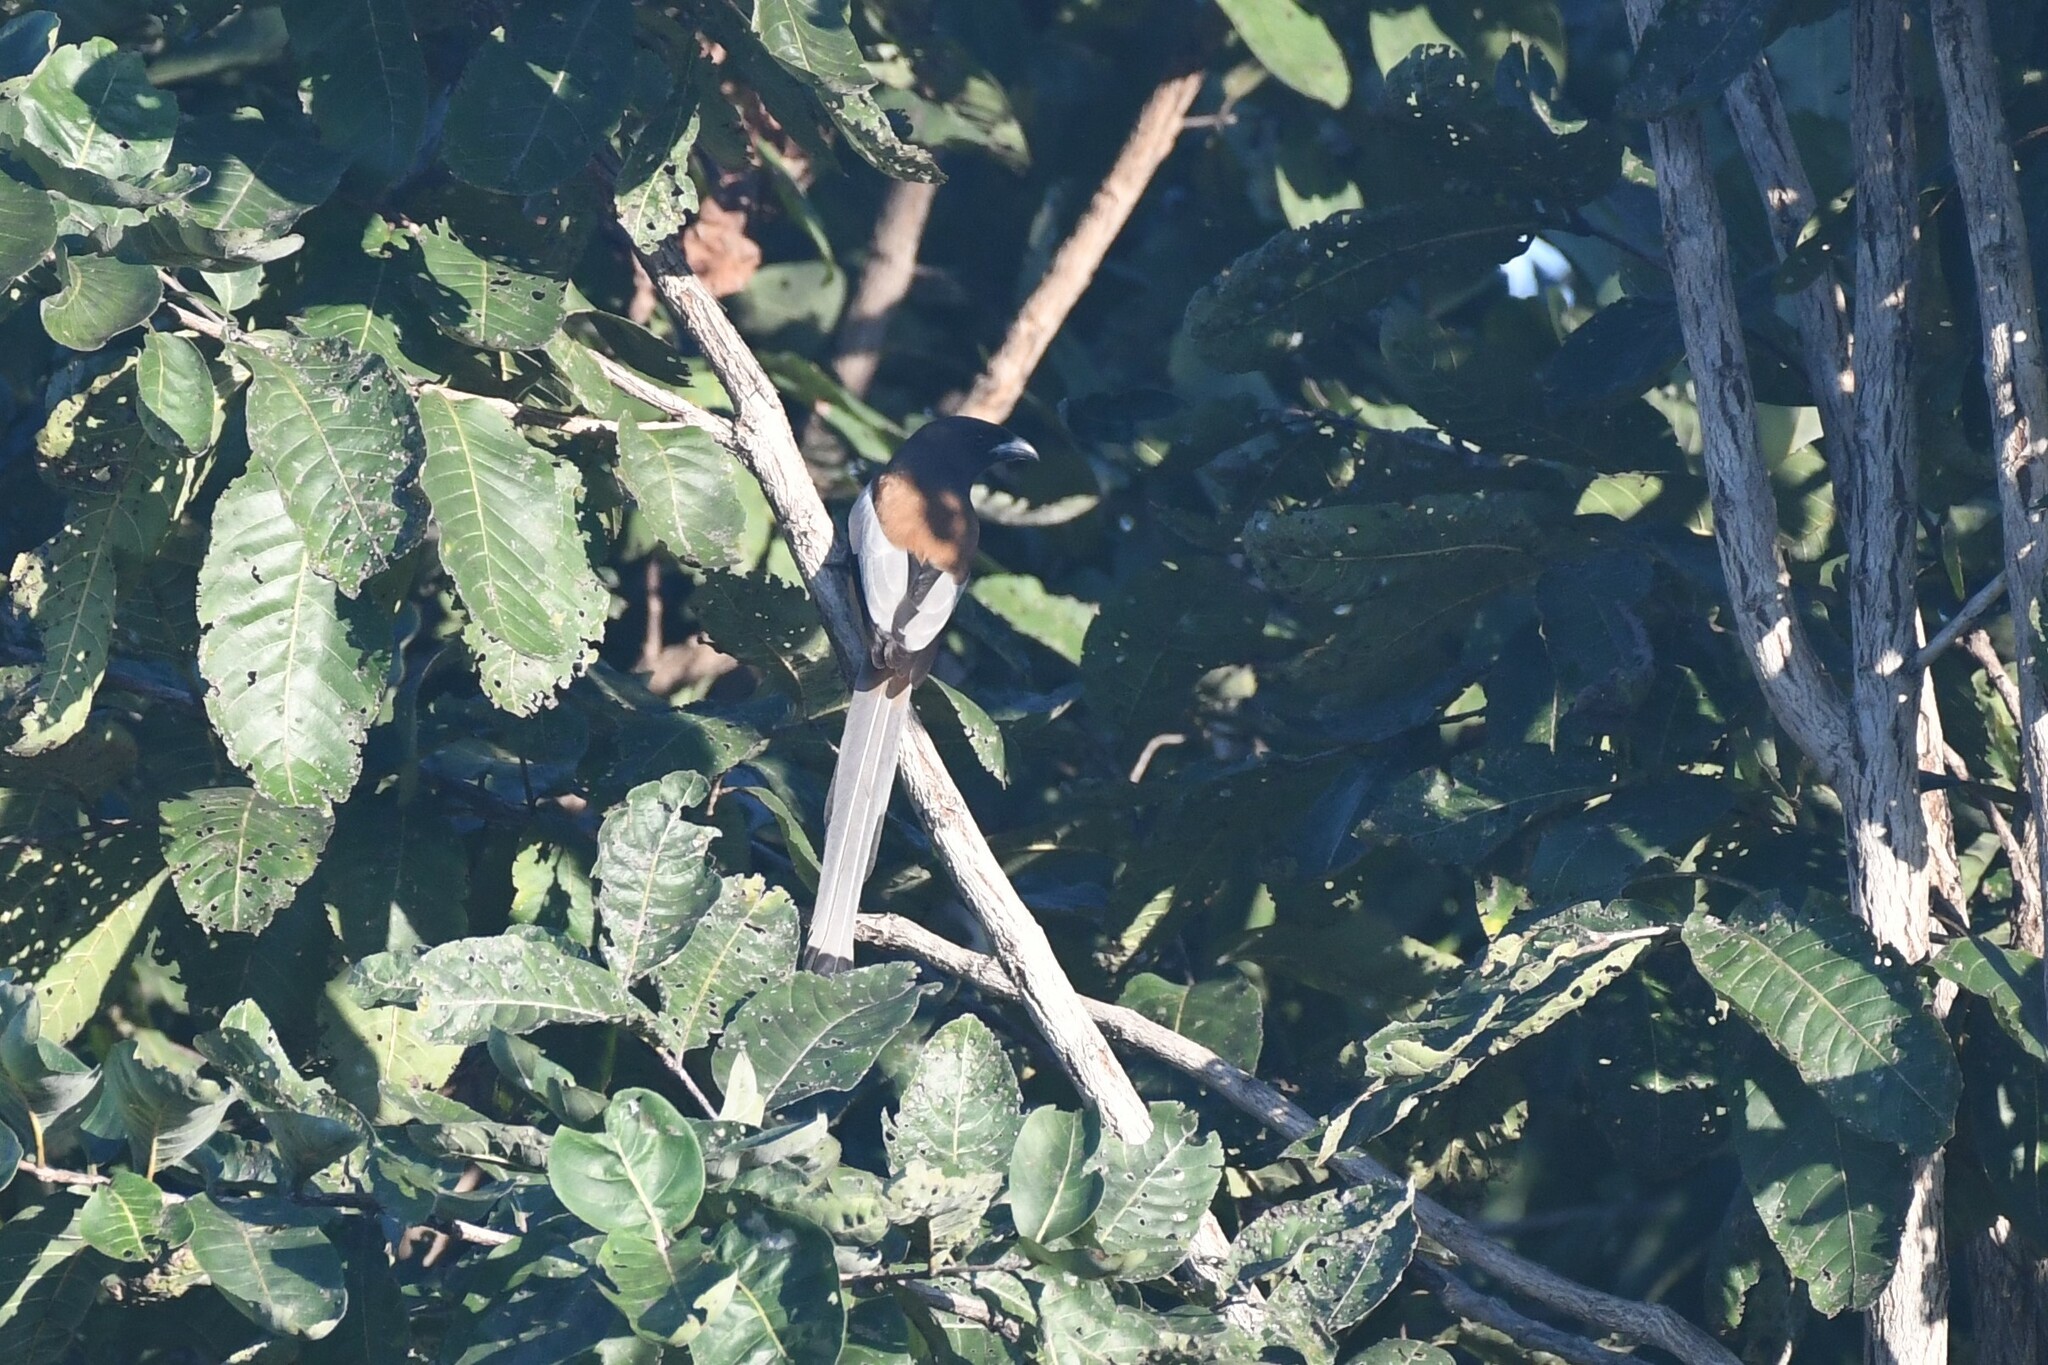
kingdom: Animalia
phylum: Chordata
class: Aves
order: Passeriformes
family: Corvidae
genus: Dendrocitta
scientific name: Dendrocitta vagabunda
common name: Rufous treepie
